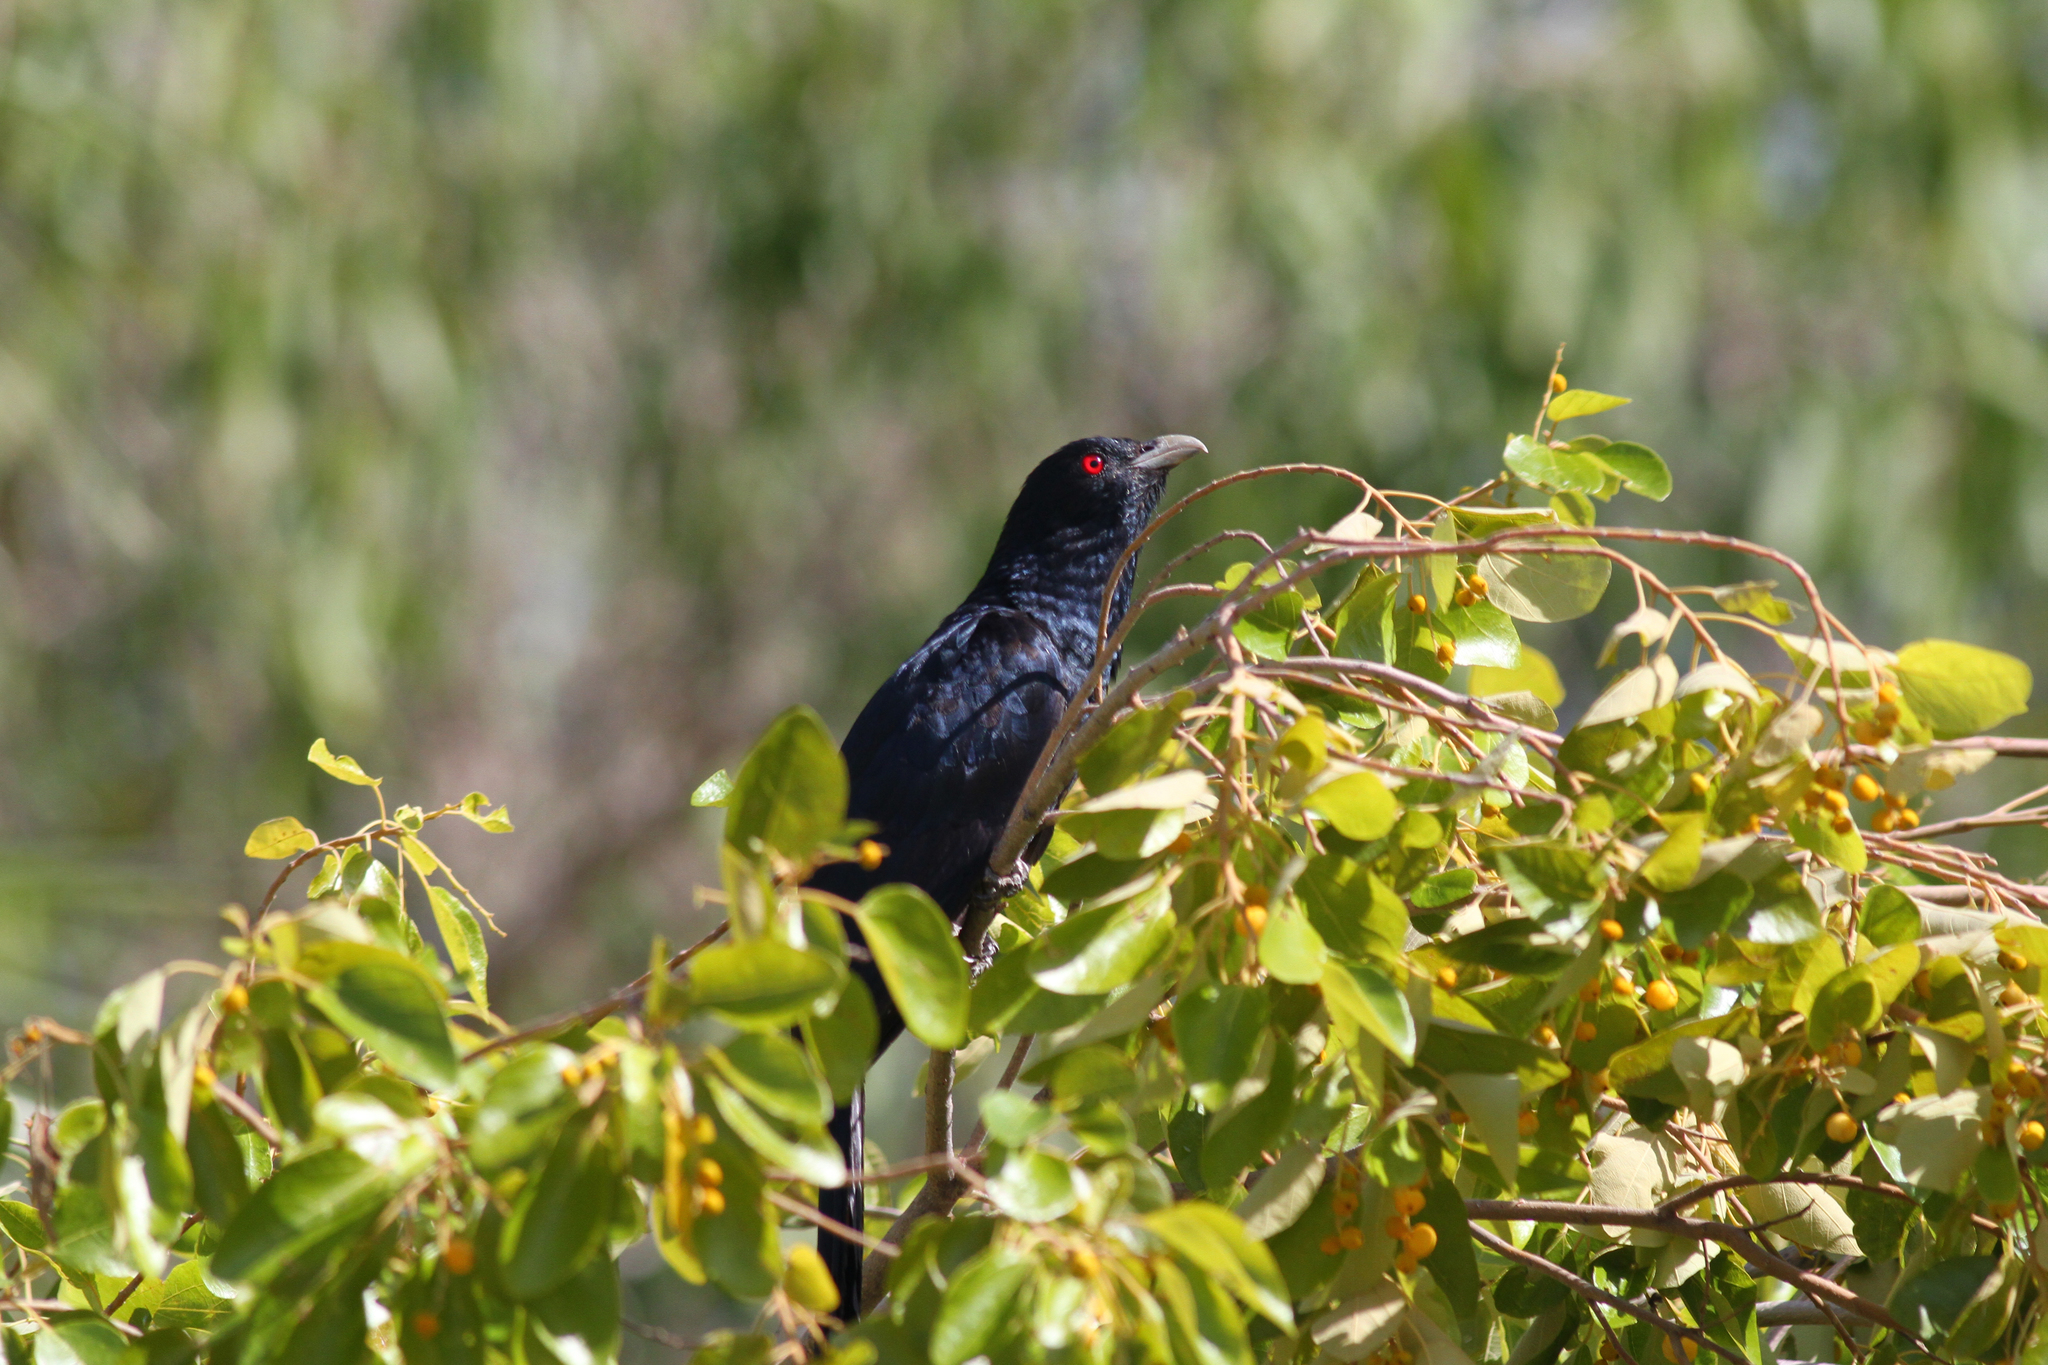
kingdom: Animalia
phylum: Chordata
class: Aves
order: Cuculiformes
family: Cuculidae
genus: Eudynamys
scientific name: Eudynamys orientalis
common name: Pacific koel
